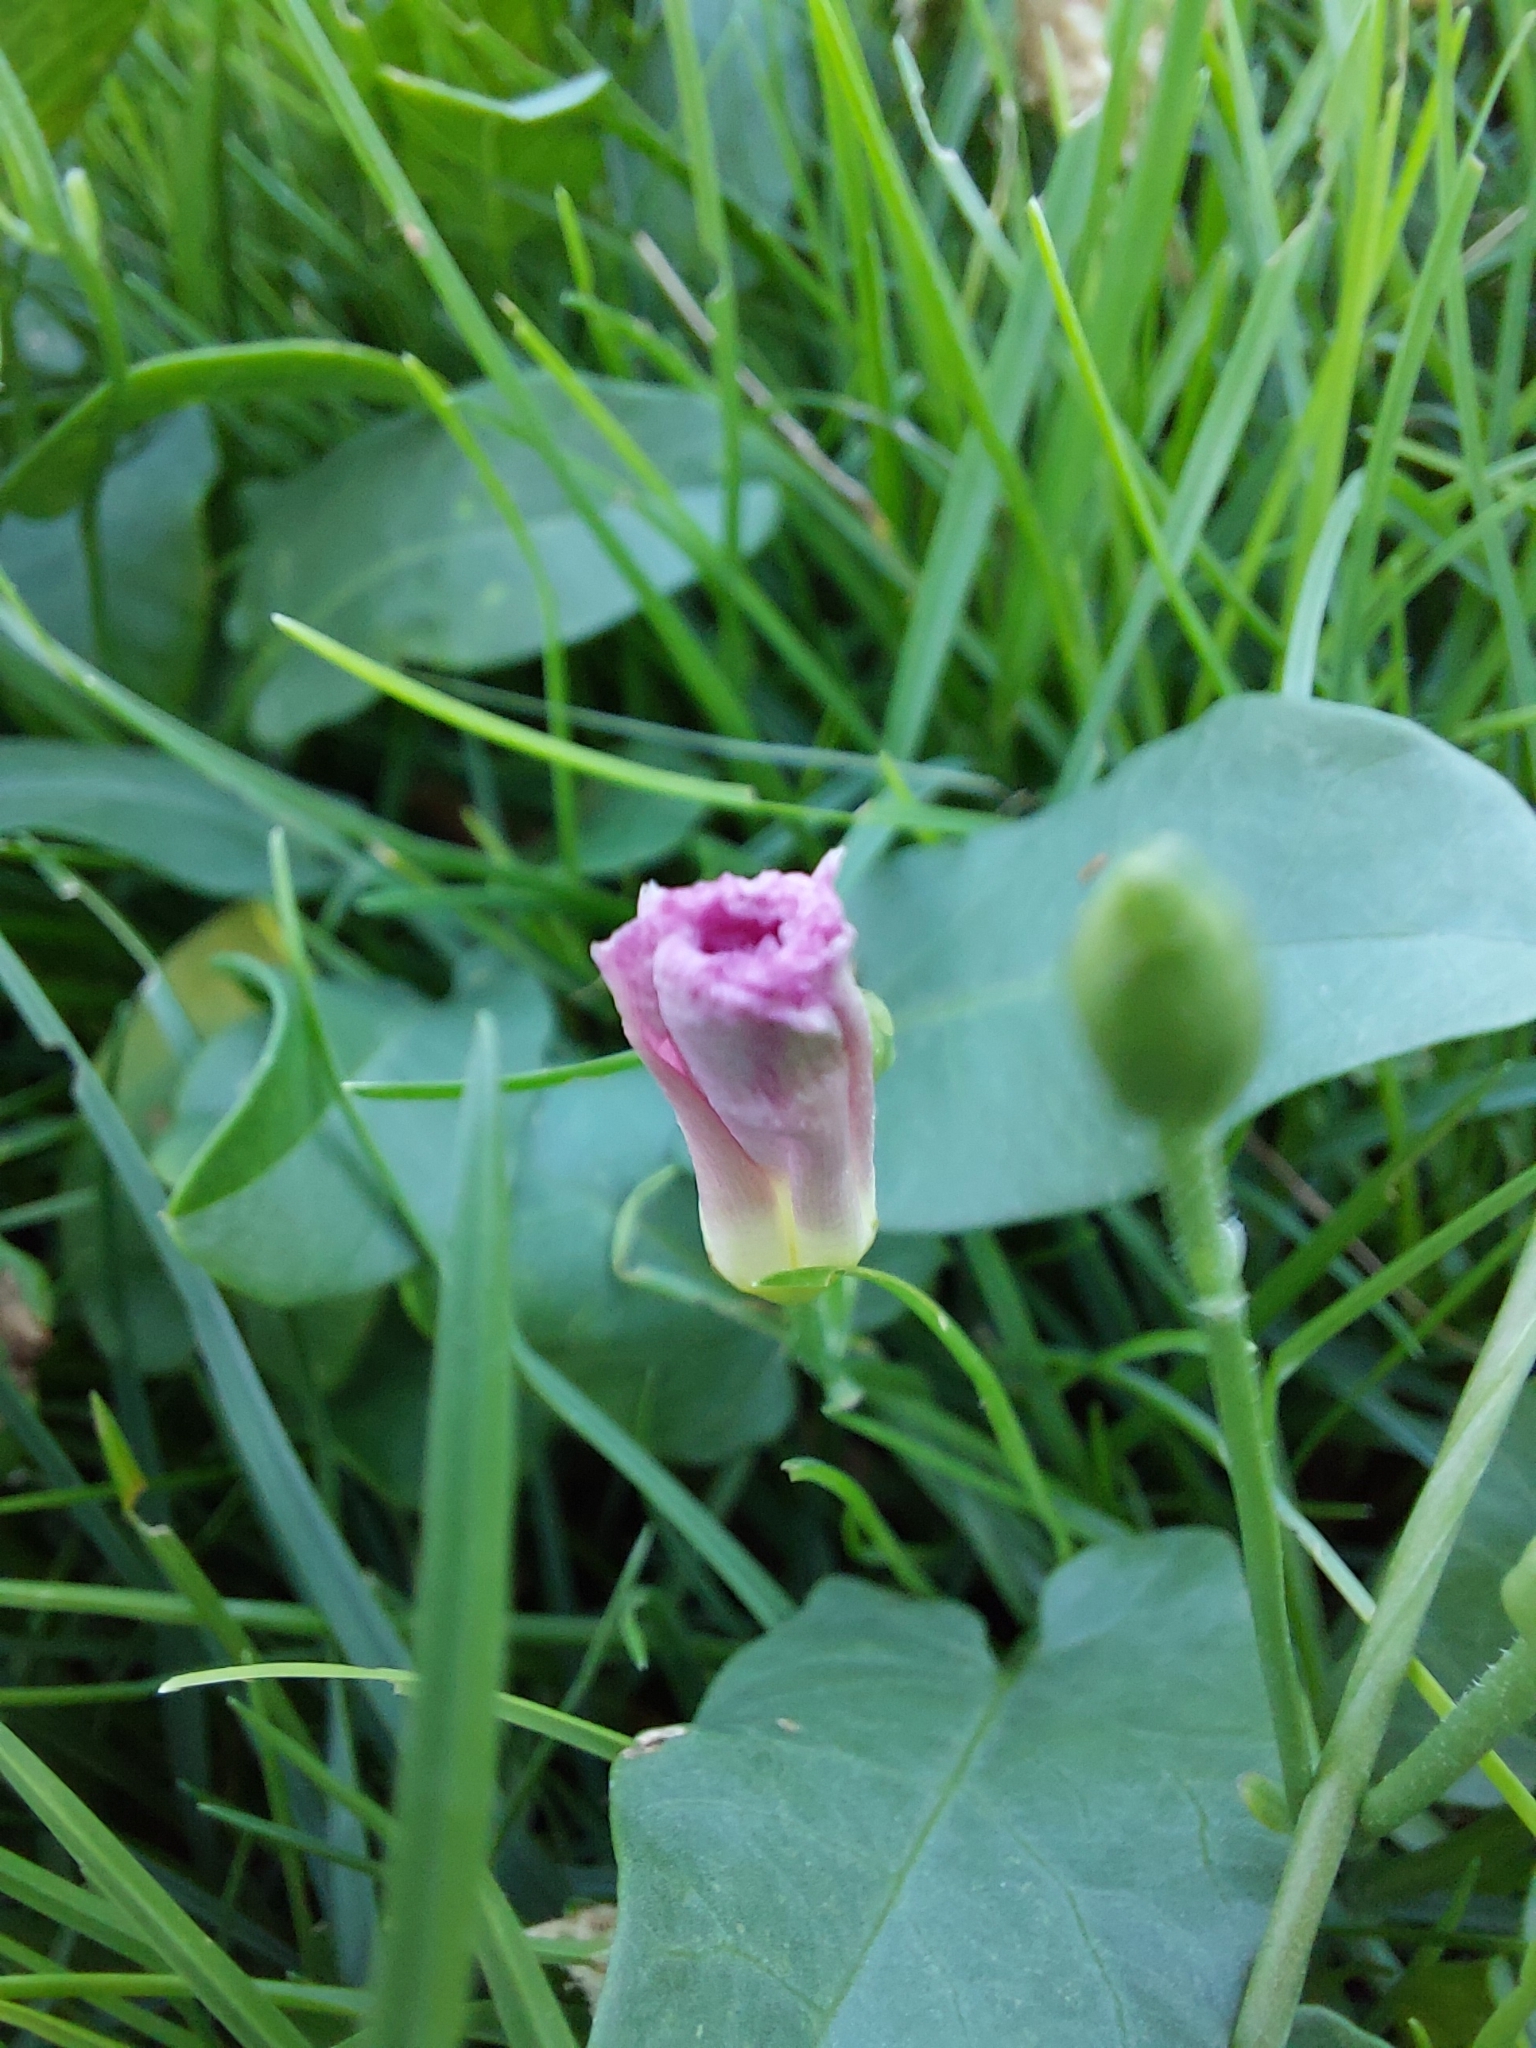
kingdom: Plantae
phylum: Tracheophyta
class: Magnoliopsida
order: Solanales
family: Convolvulaceae
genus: Convolvulus
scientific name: Convolvulus arvensis
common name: Field bindweed
